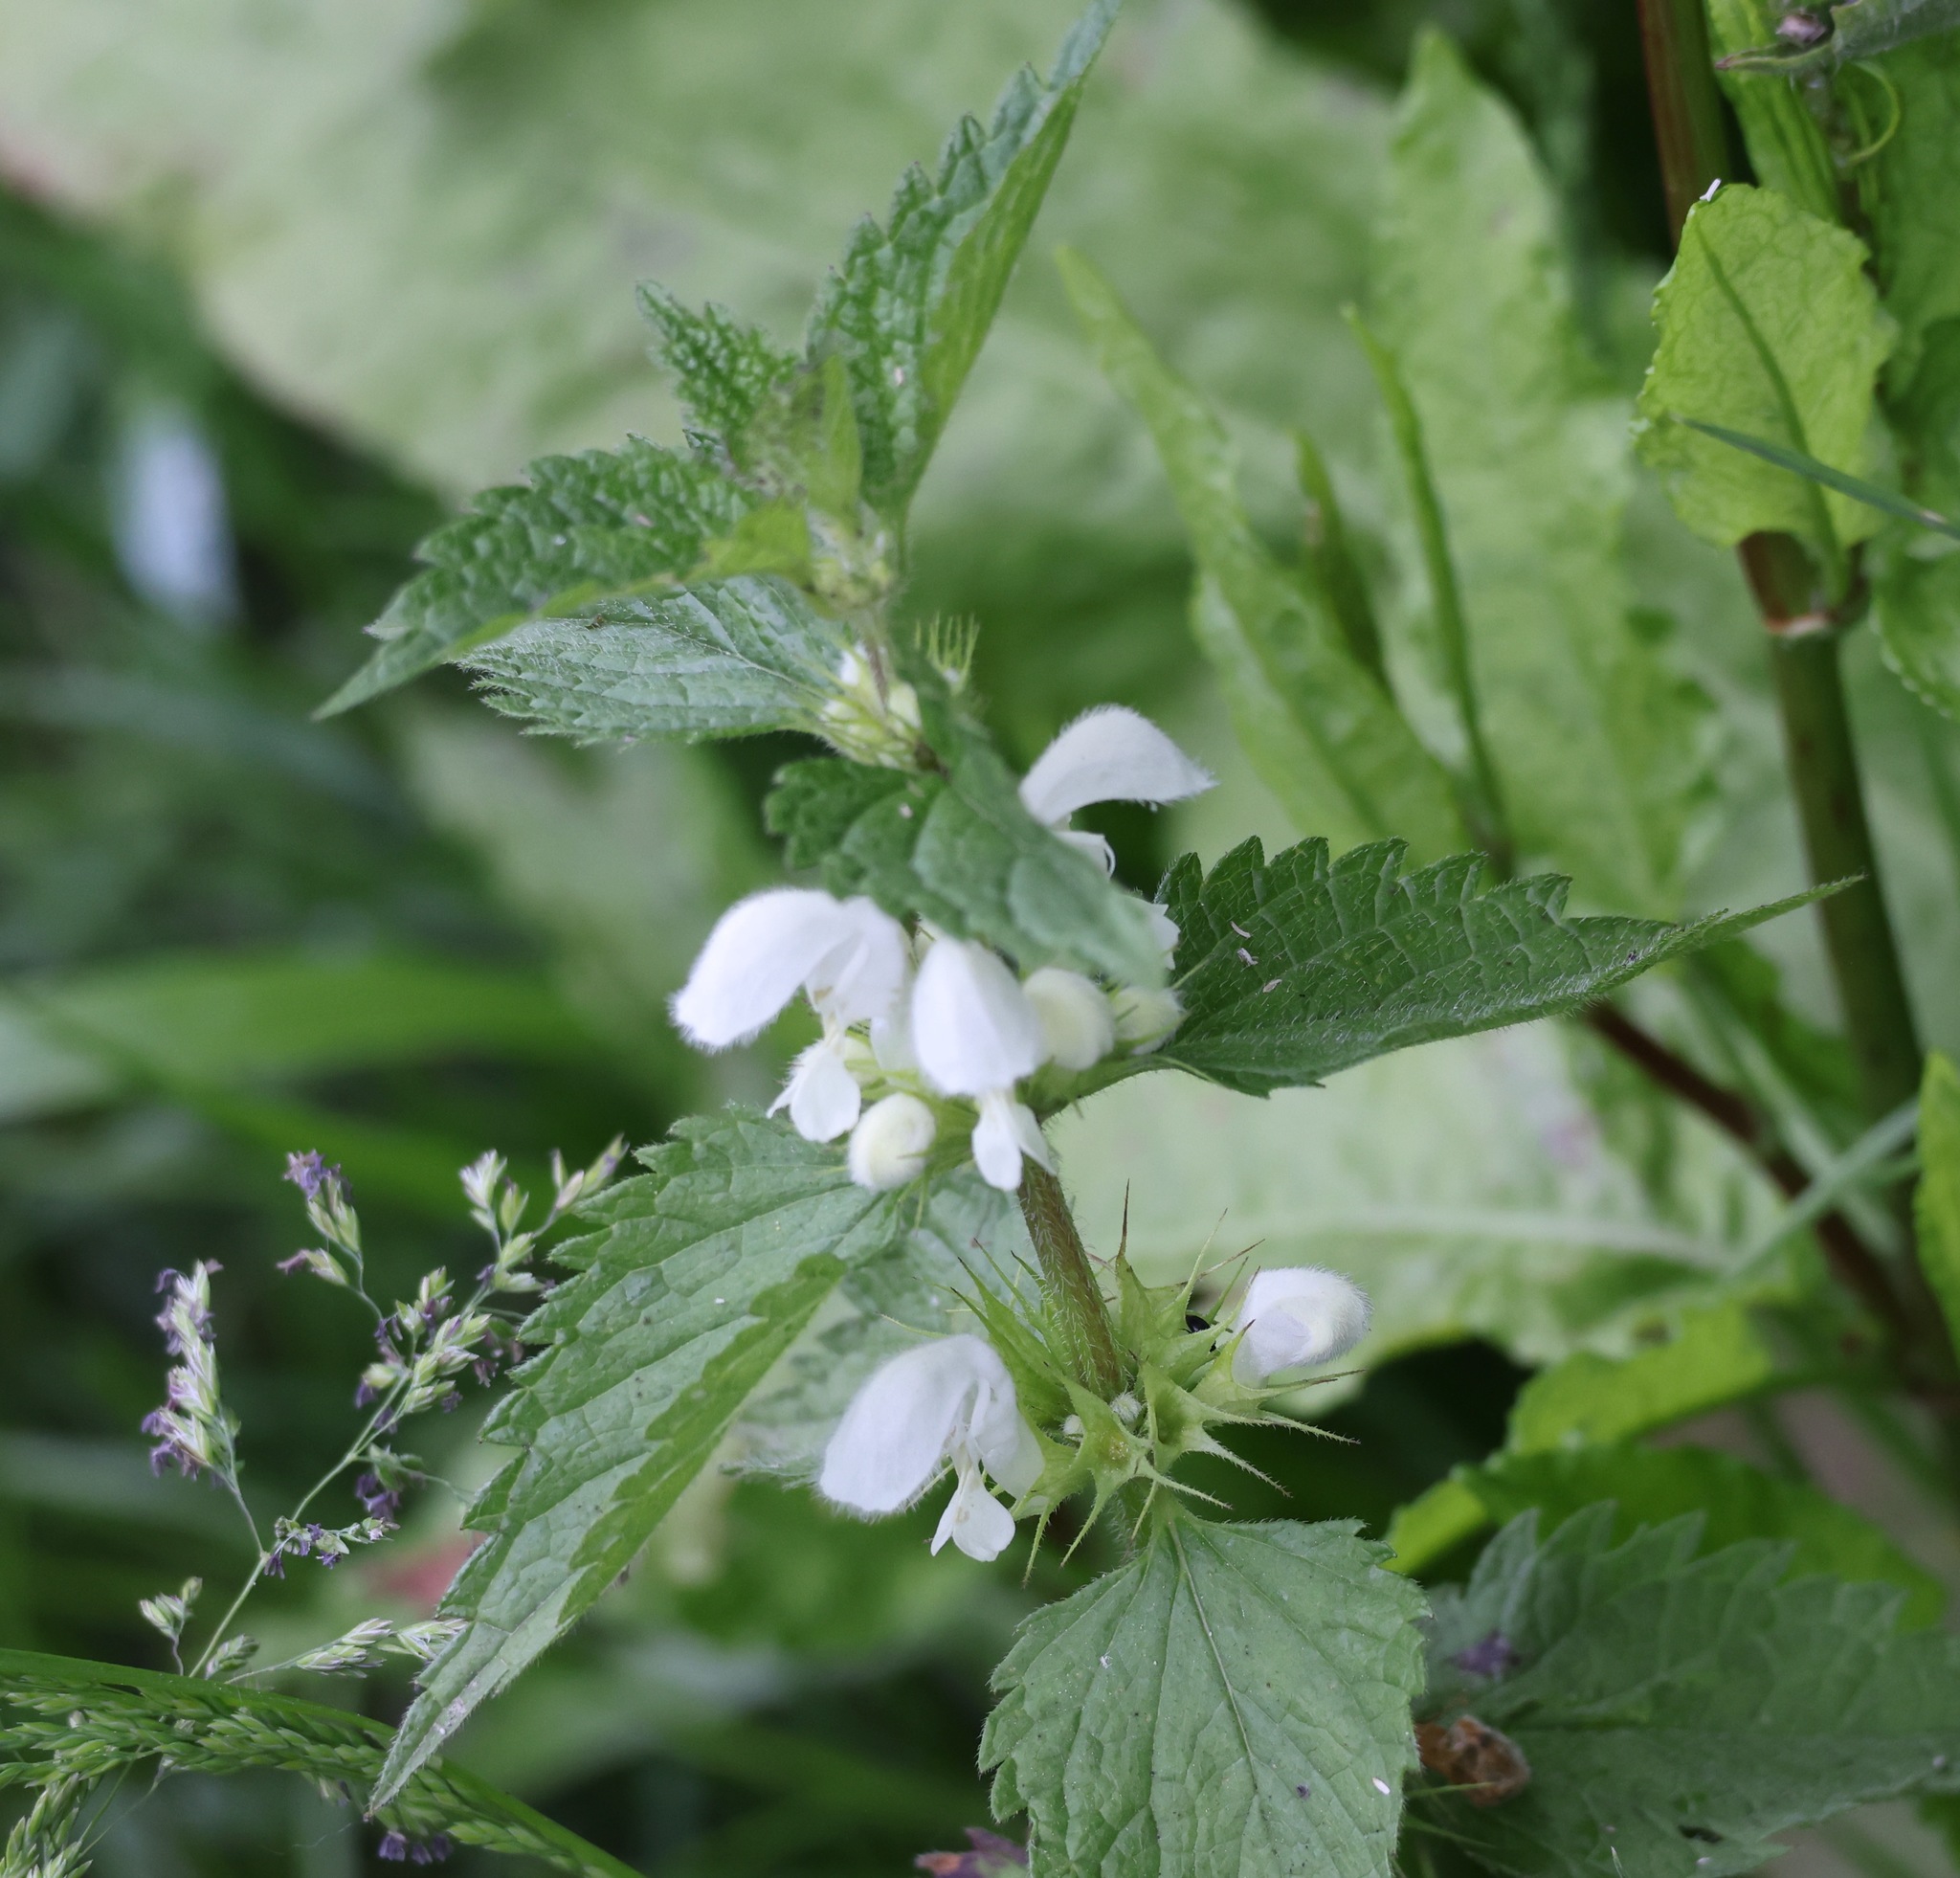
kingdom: Plantae
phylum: Tracheophyta
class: Magnoliopsida
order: Lamiales
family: Lamiaceae
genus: Lamium
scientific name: Lamium album
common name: White dead-nettle
